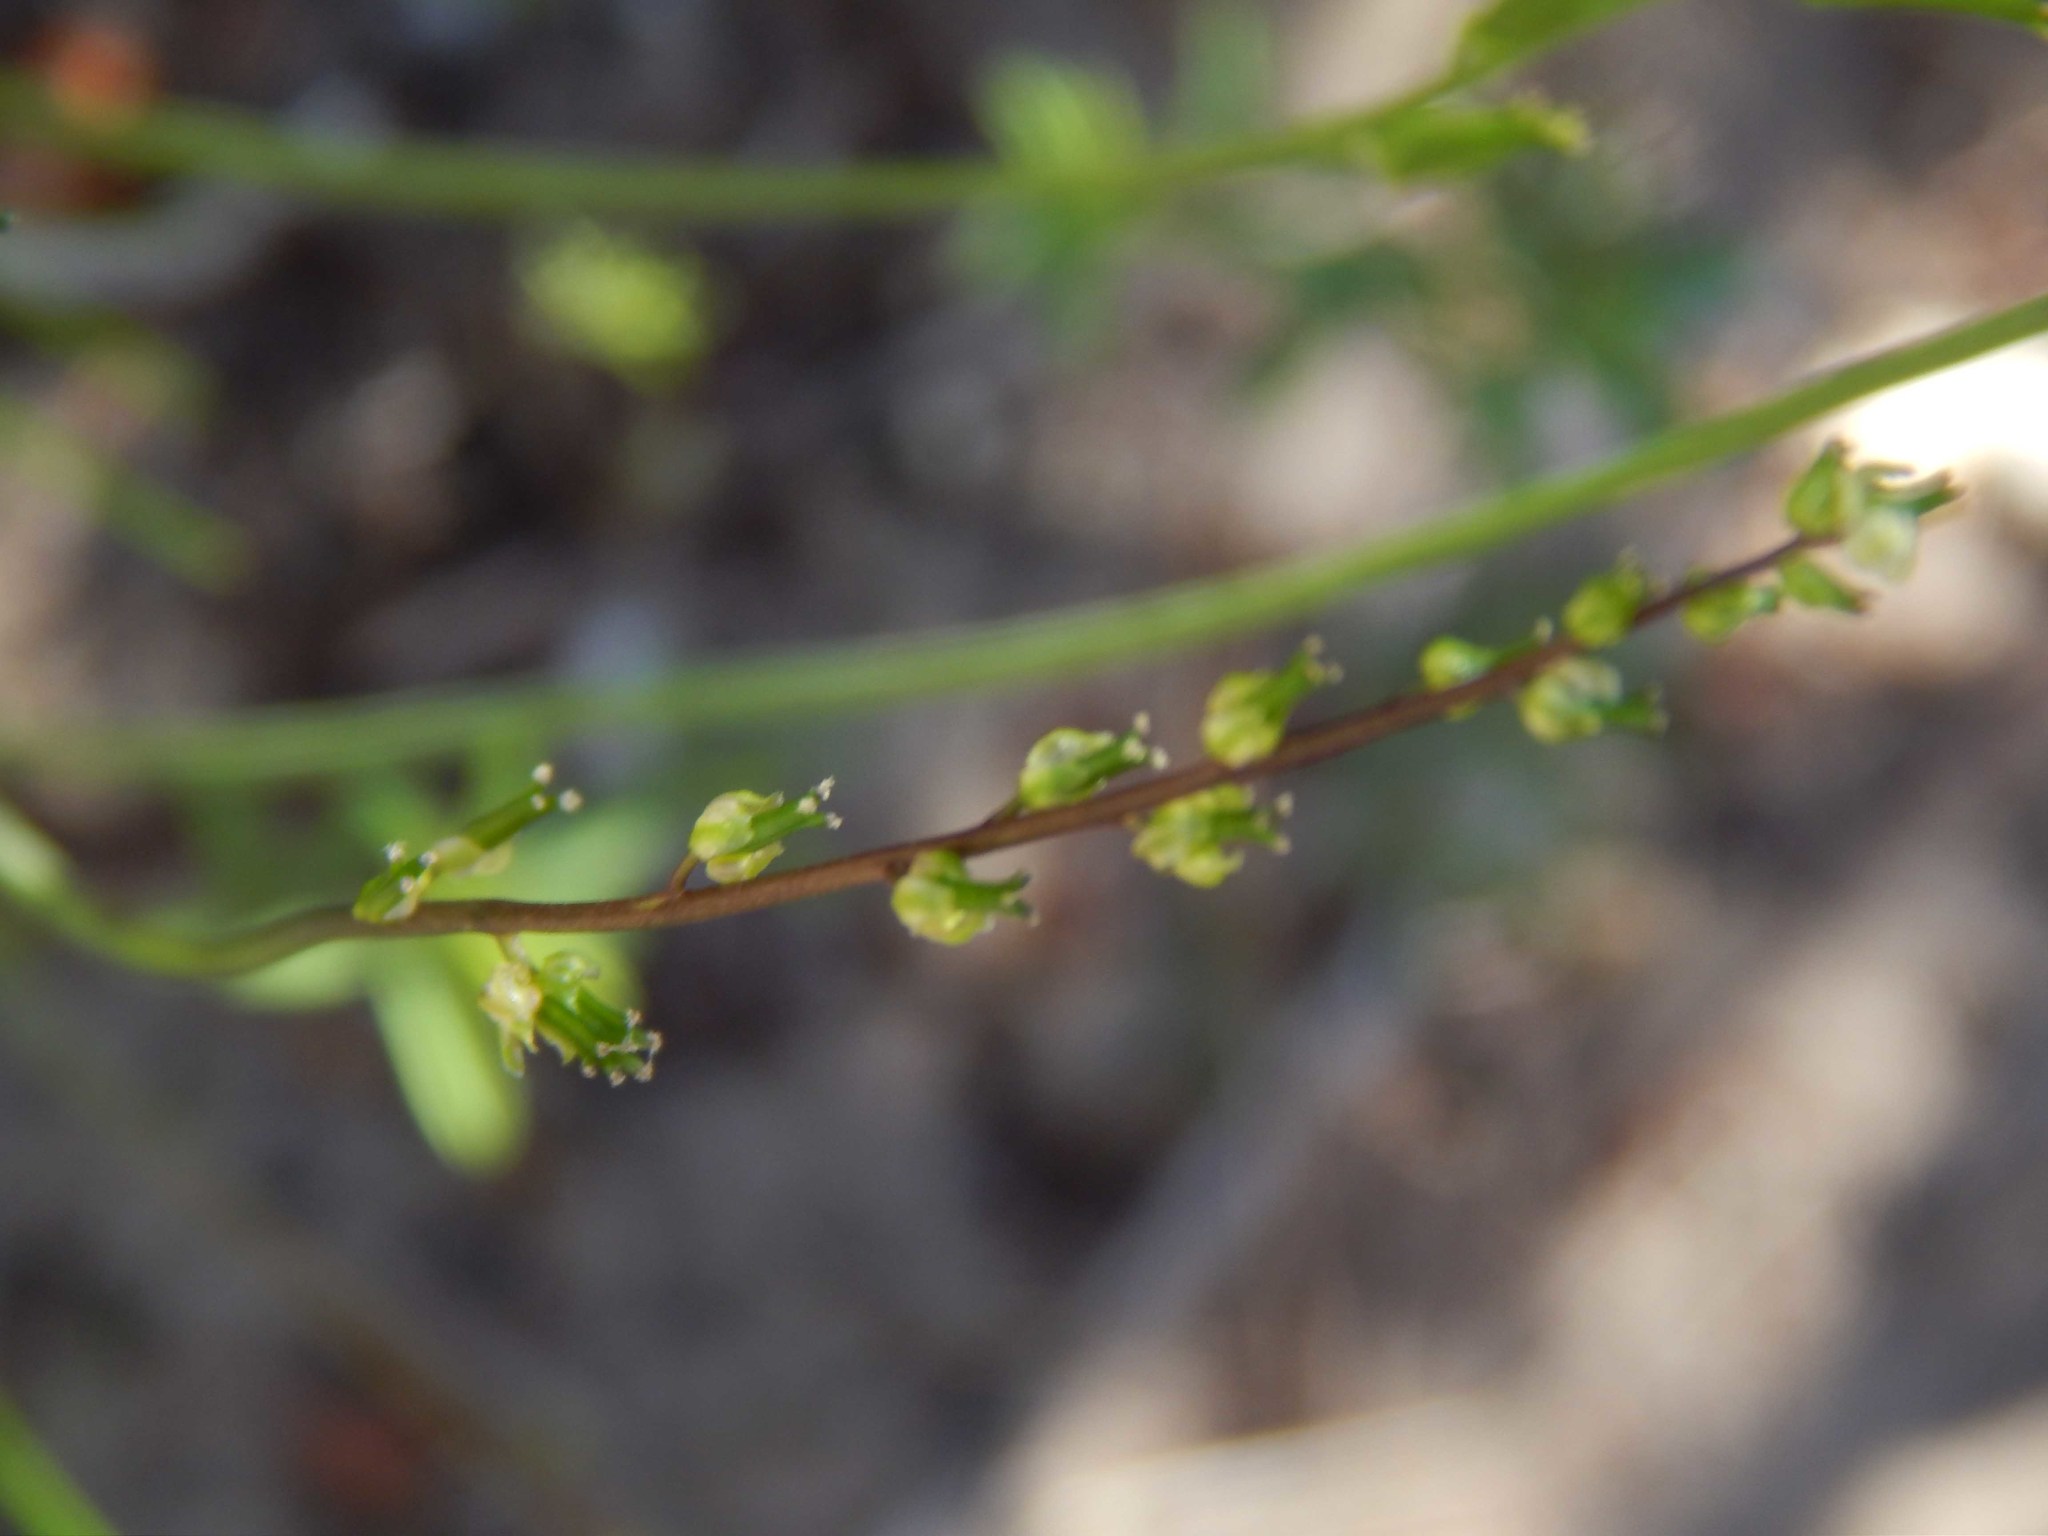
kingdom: Plantae
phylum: Tracheophyta
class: Liliopsida
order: Alismatales
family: Juncaginaceae
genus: Triglochin
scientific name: Triglochin bulbosa
